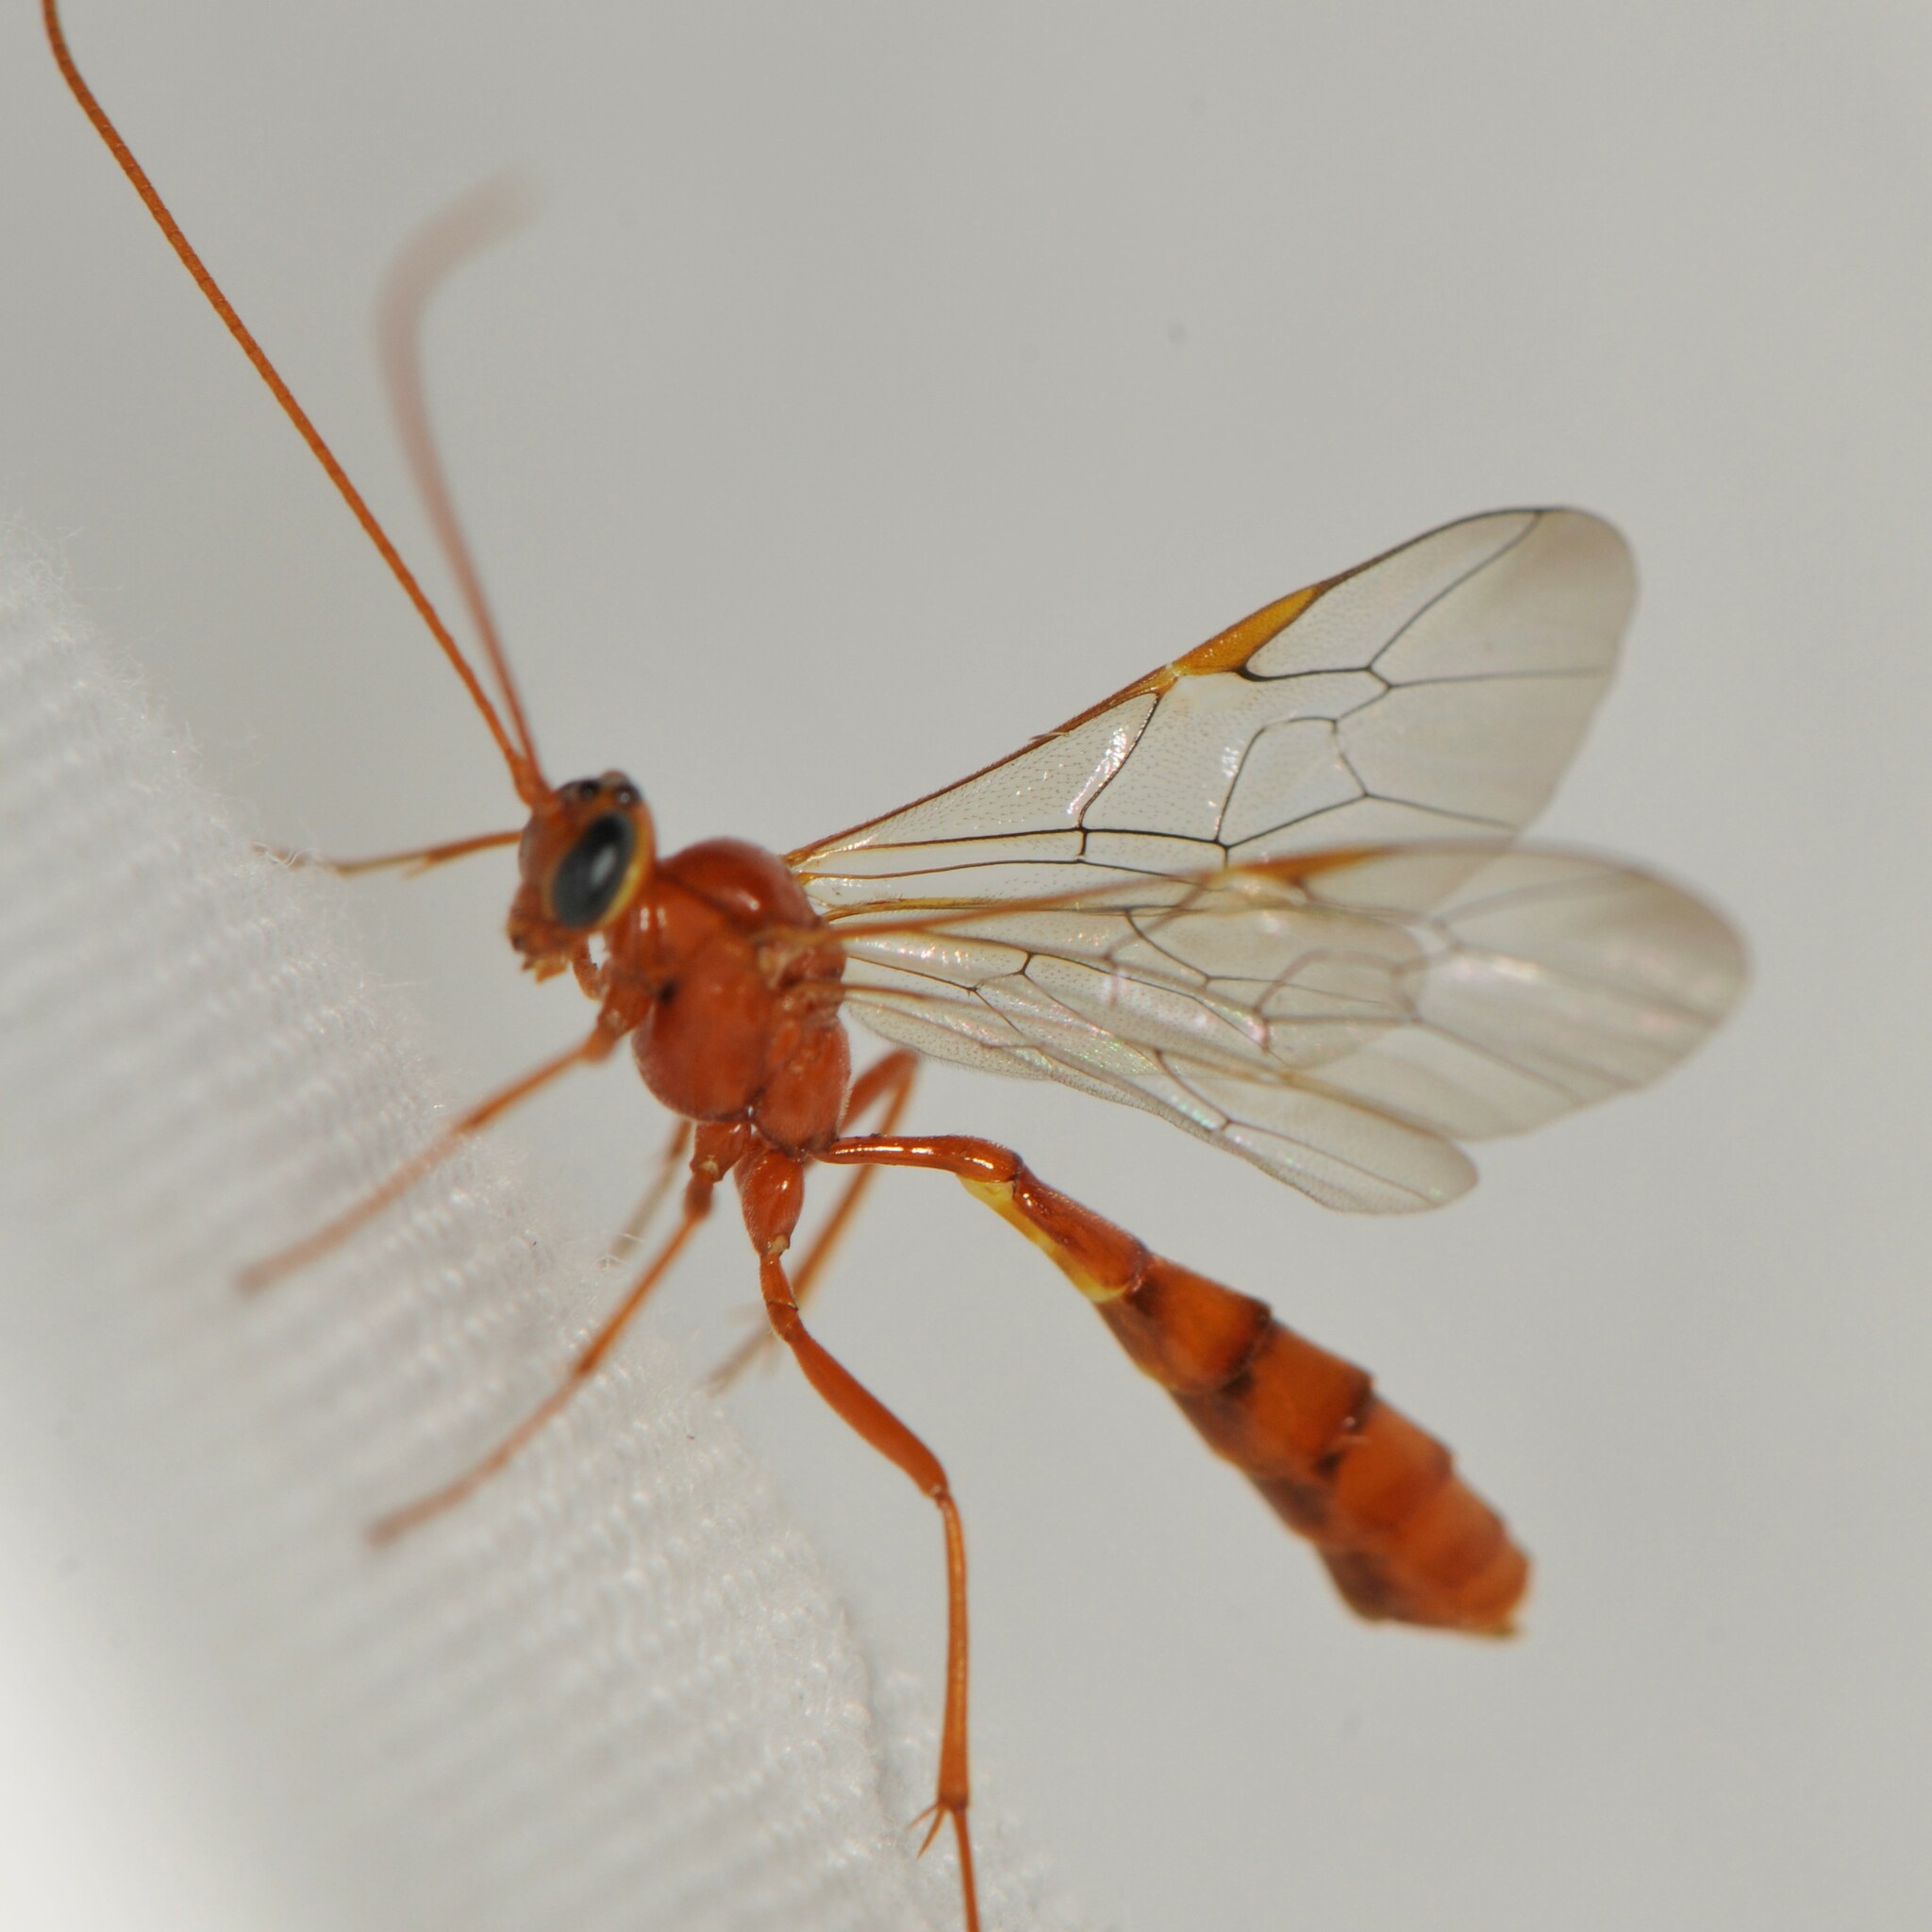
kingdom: Animalia
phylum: Arthropoda
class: Insecta
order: Hymenoptera
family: Ichneumonidae
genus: Eremotylus
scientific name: Eremotylus
